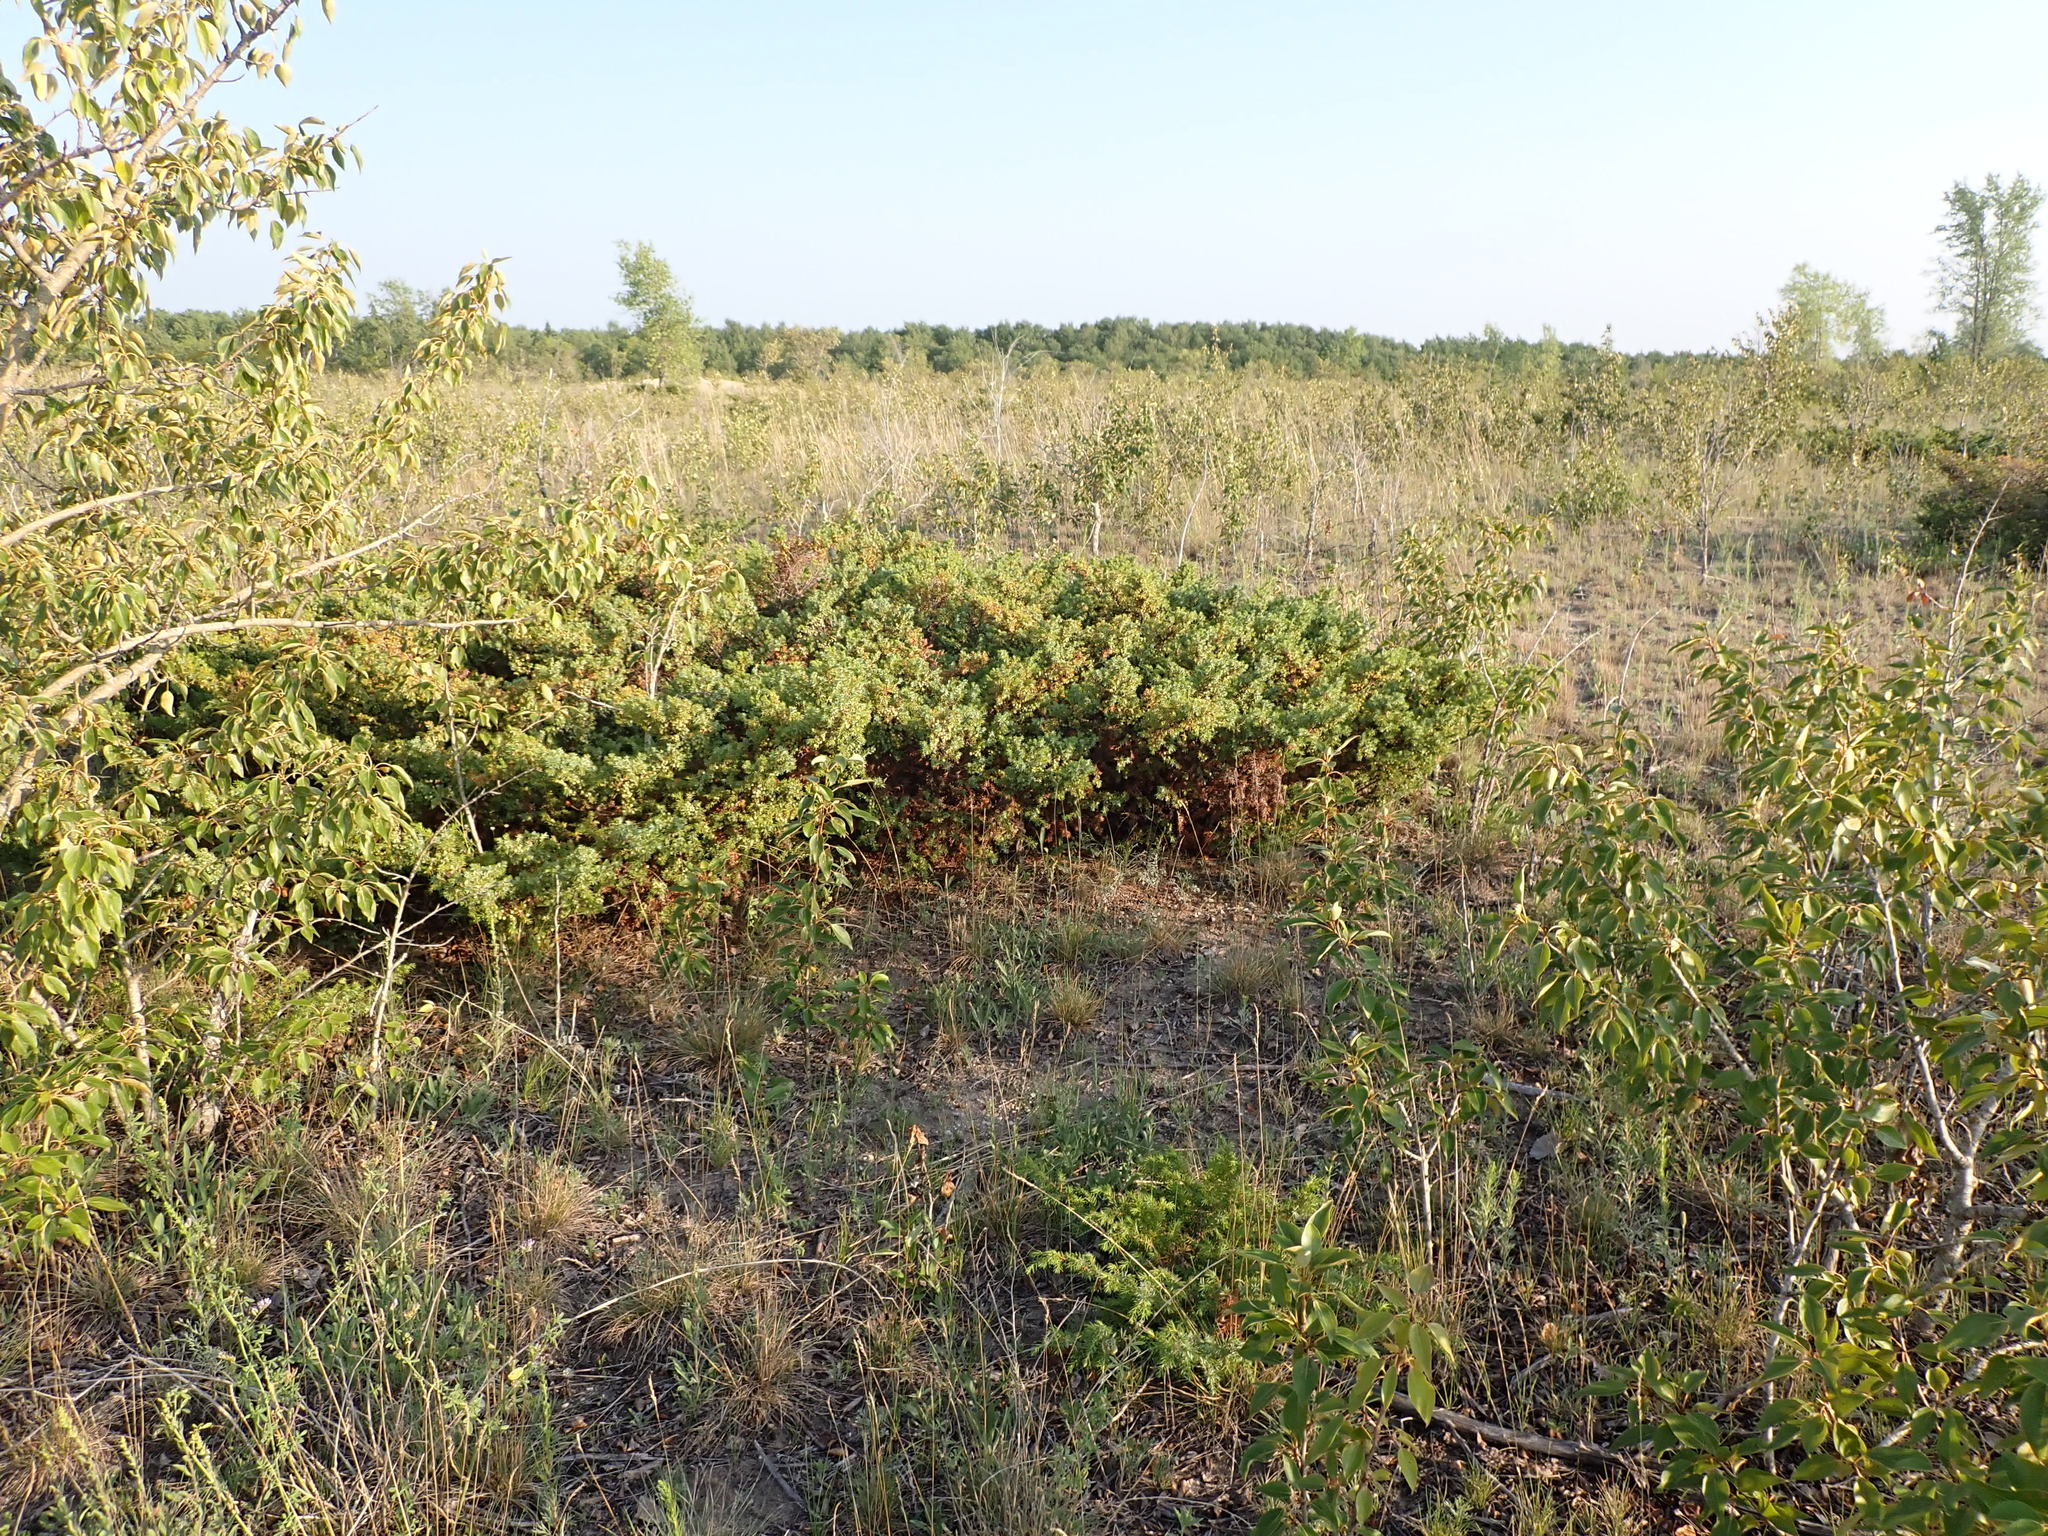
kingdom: Plantae
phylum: Tracheophyta
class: Pinopsida
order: Pinales
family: Cupressaceae
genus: Juniperus
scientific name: Juniperus communis
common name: Common juniper
